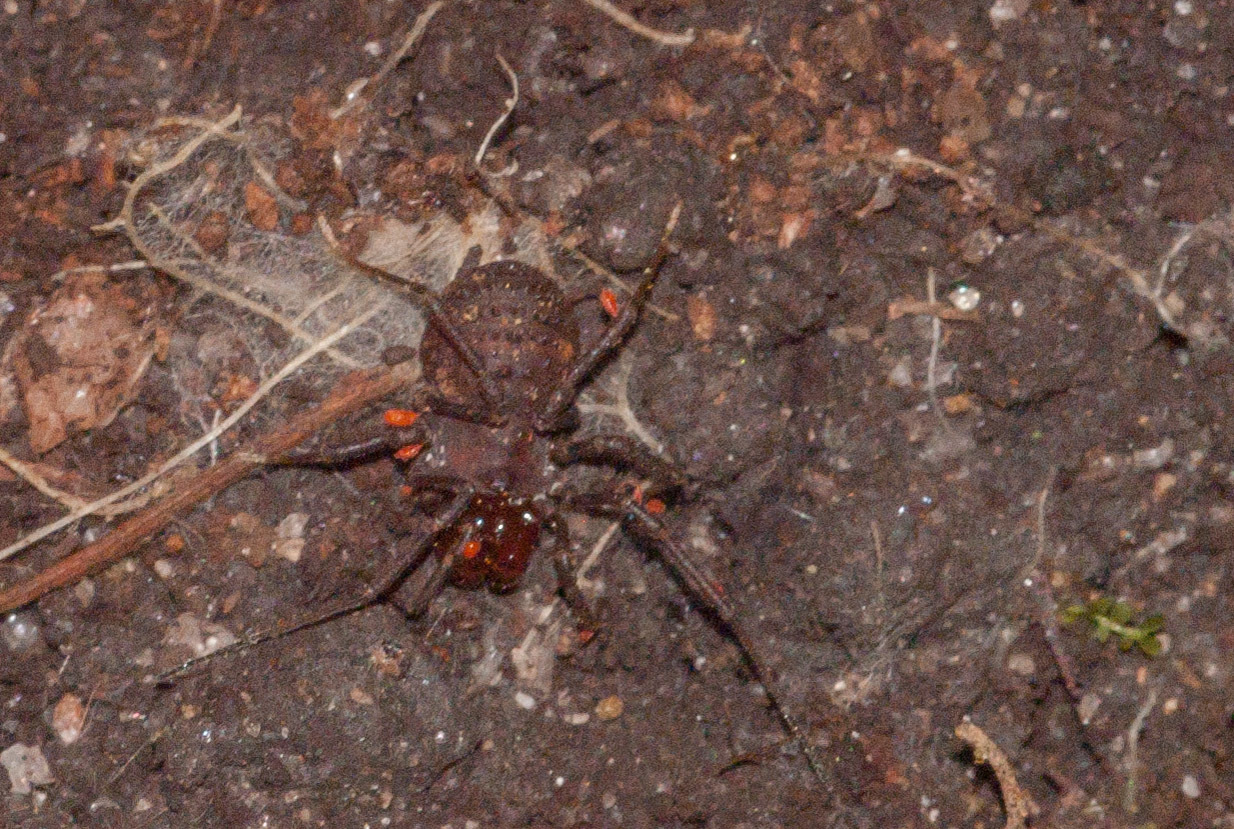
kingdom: Animalia
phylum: Arthropoda
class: Arachnida
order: Opiliones
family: Triaenonychidae
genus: Paranuncia
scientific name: Paranuncia ingens
